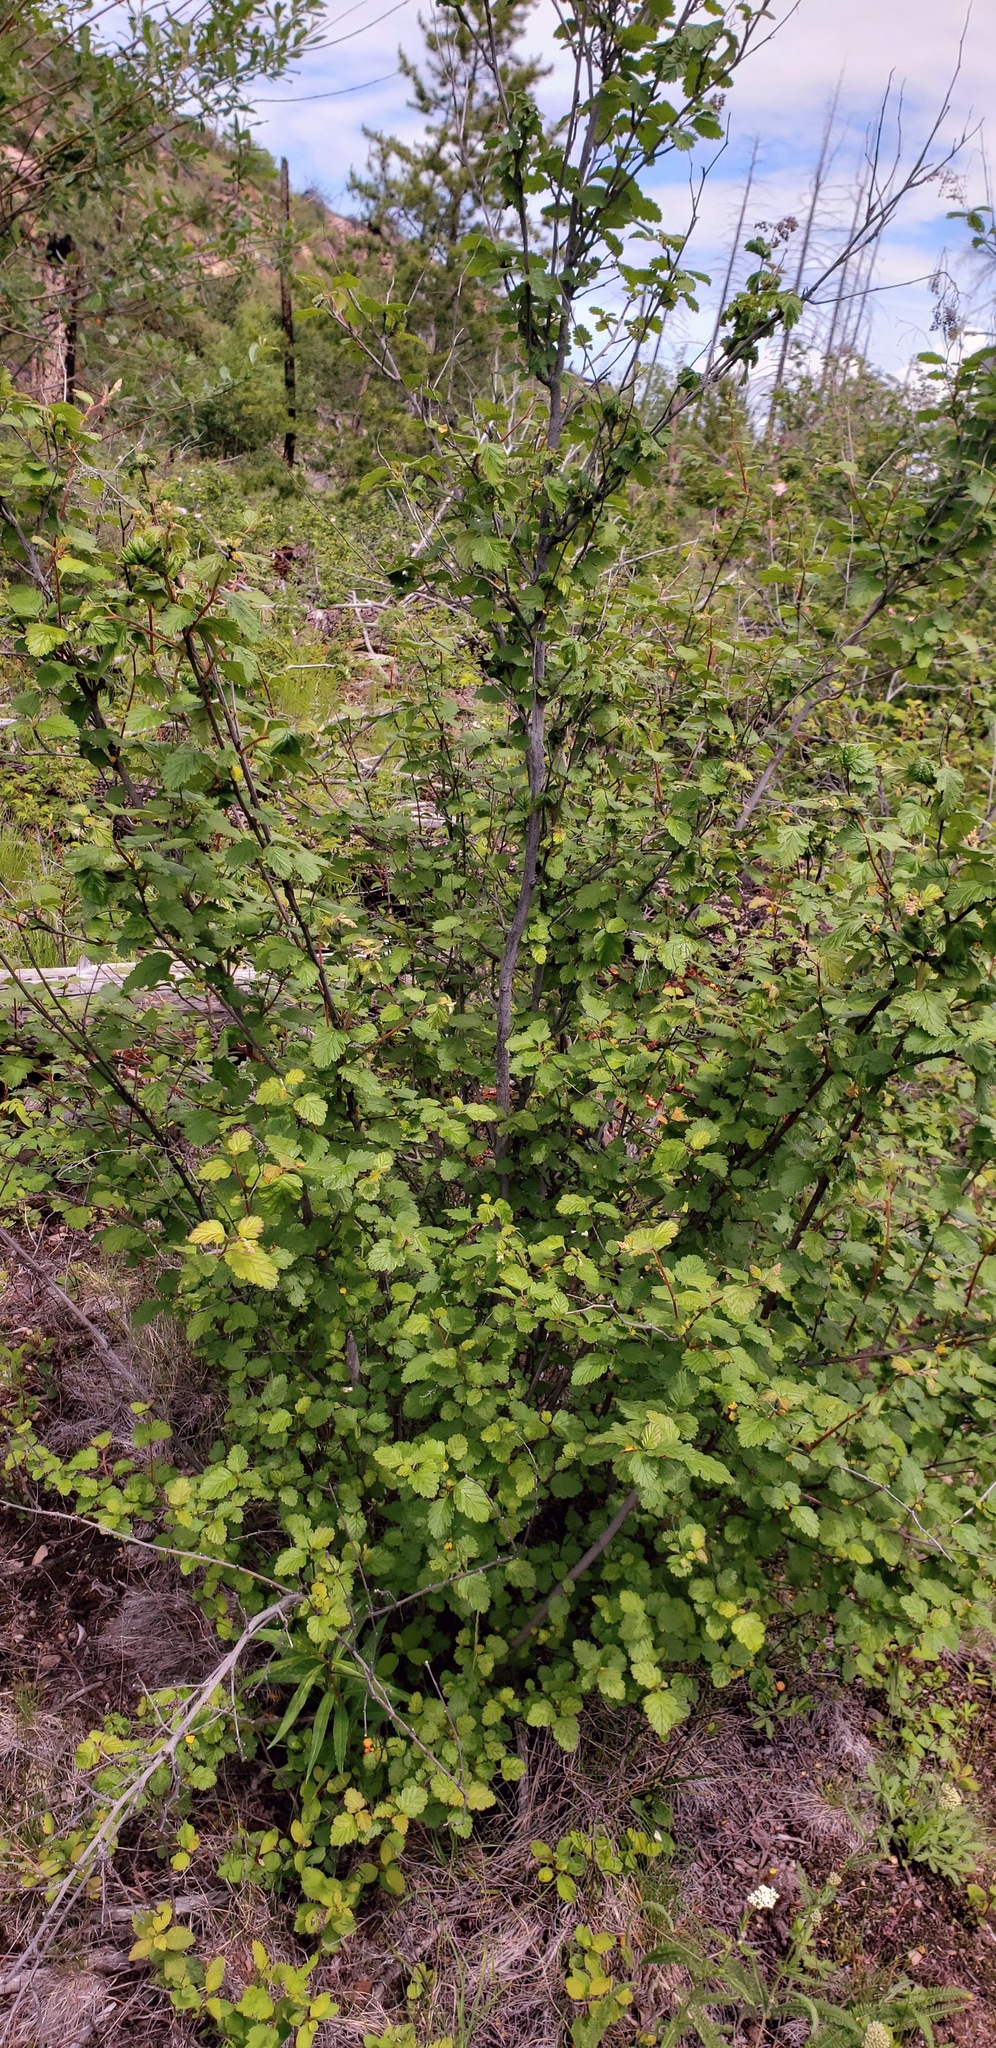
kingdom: Plantae
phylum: Tracheophyta
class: Magnoliopsida
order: Rosales
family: Rosaceae
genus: Holodiscus
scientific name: Holodiscus discolor
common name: Oceanspray
